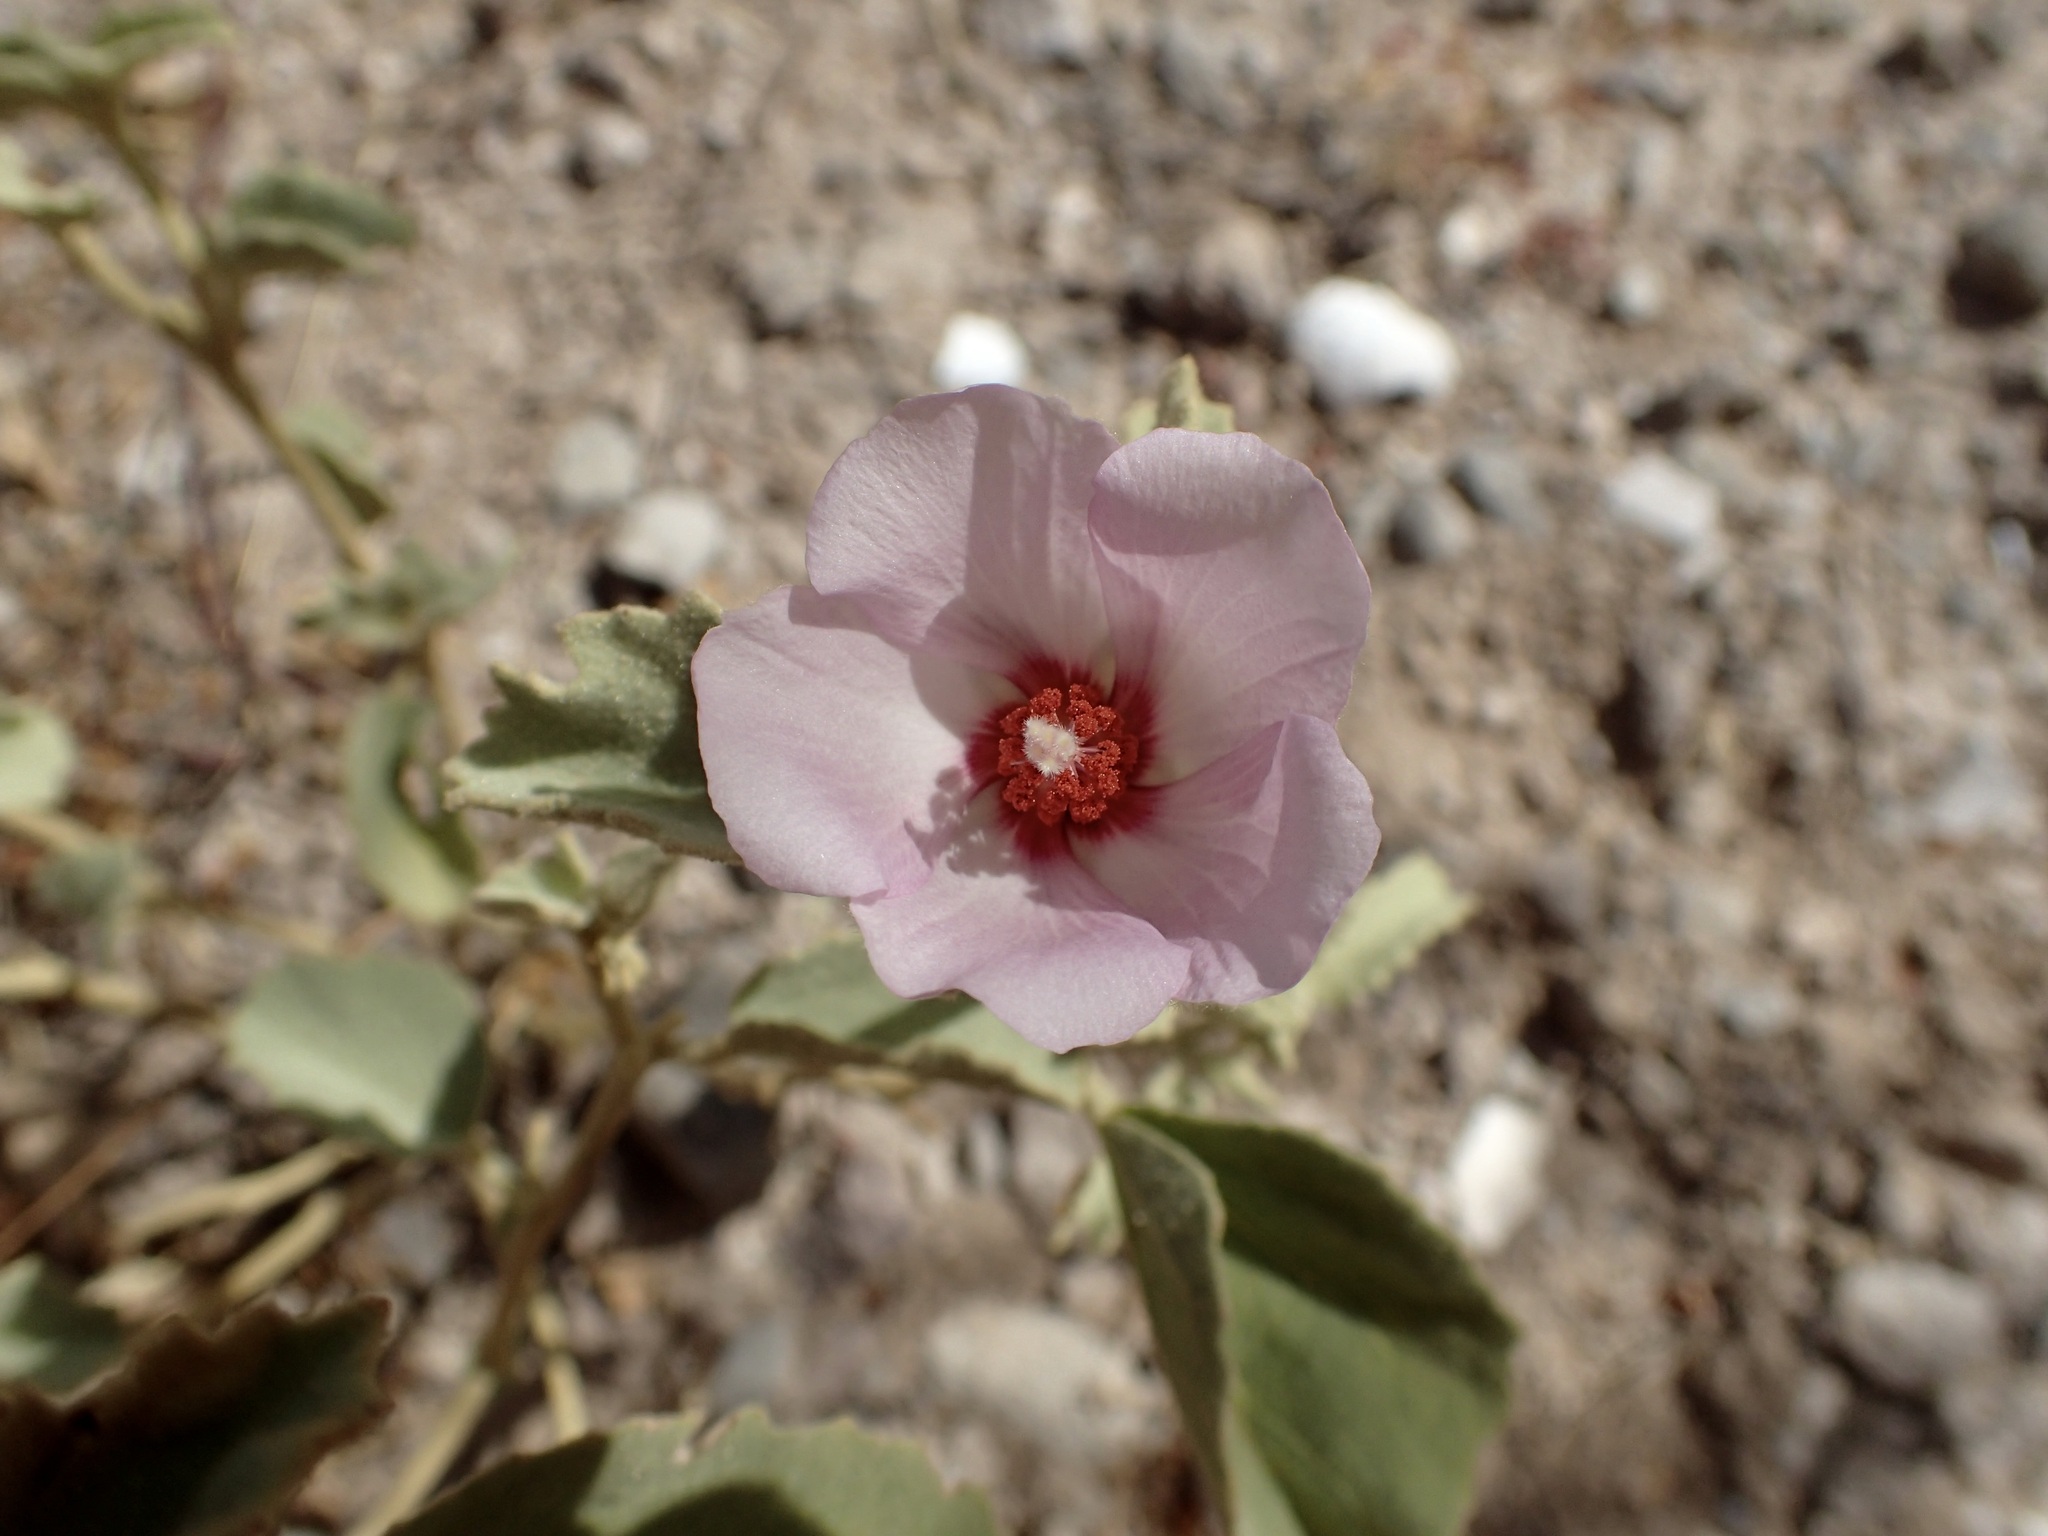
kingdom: Plantae
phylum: Tracheophyta
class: Magnoliopsida
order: Malvales
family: Malvaceae
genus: Hibiscus
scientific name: Hibiscus denudatus
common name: Paleface
